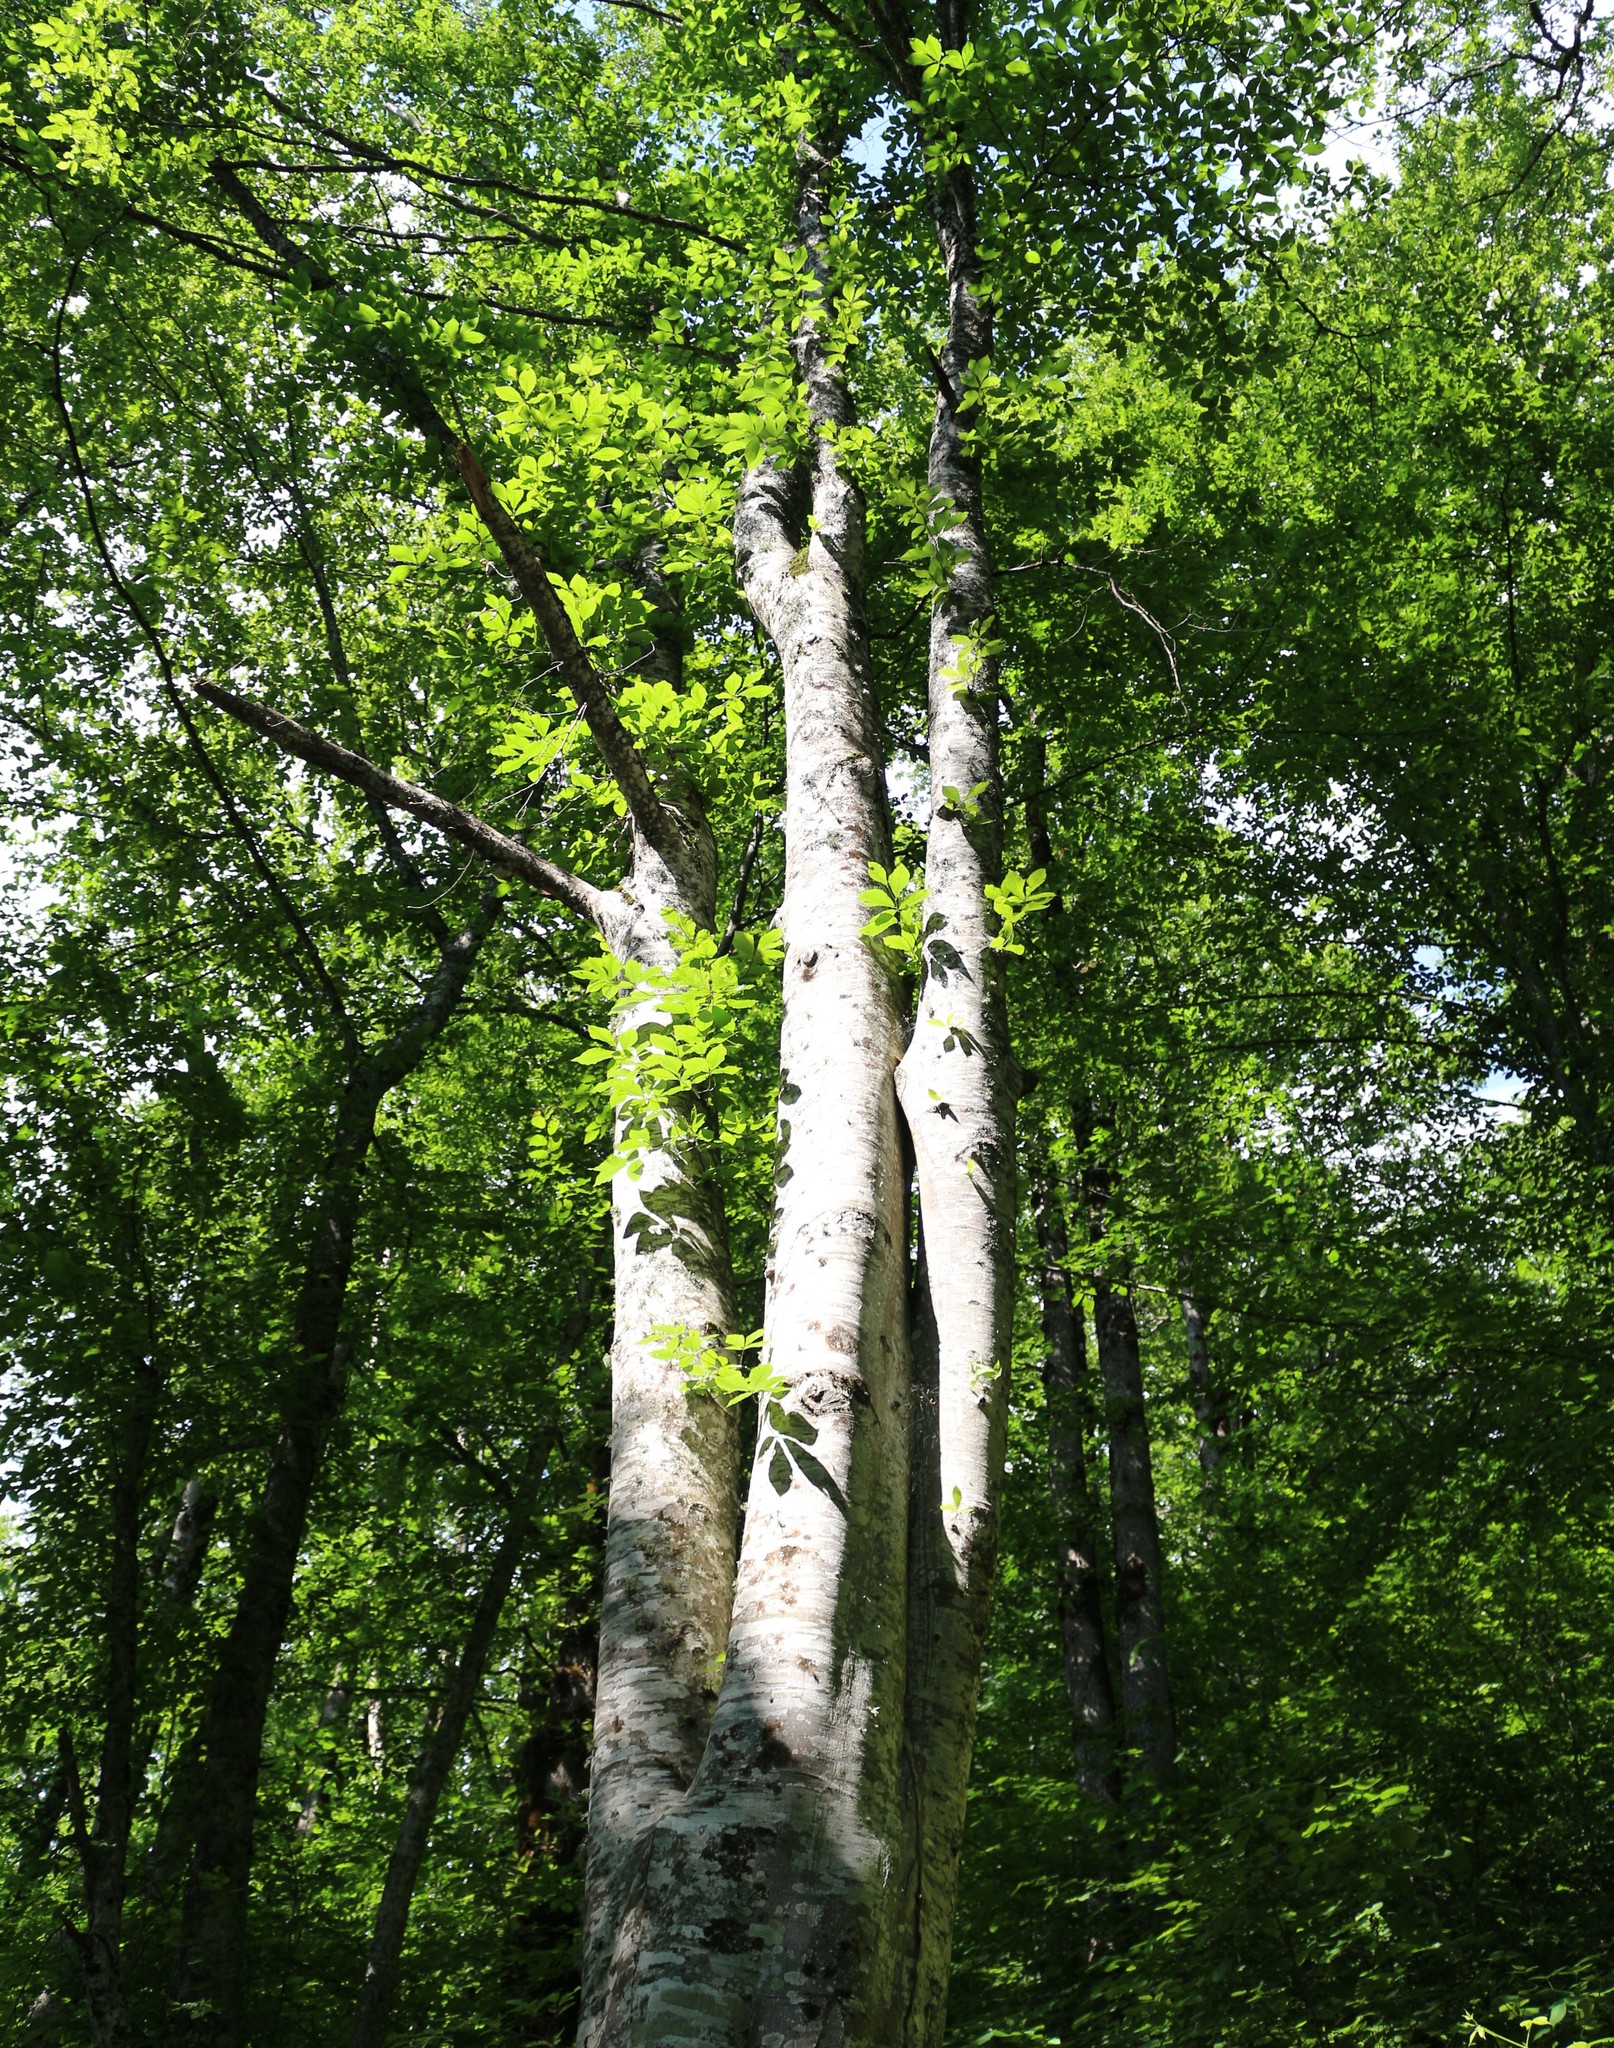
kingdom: Plantae
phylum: Tracheophyta
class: Magnoliopsida
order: Fagales
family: Fagaceae
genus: Fagus
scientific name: Fagus orientalis
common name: Oriental beech
